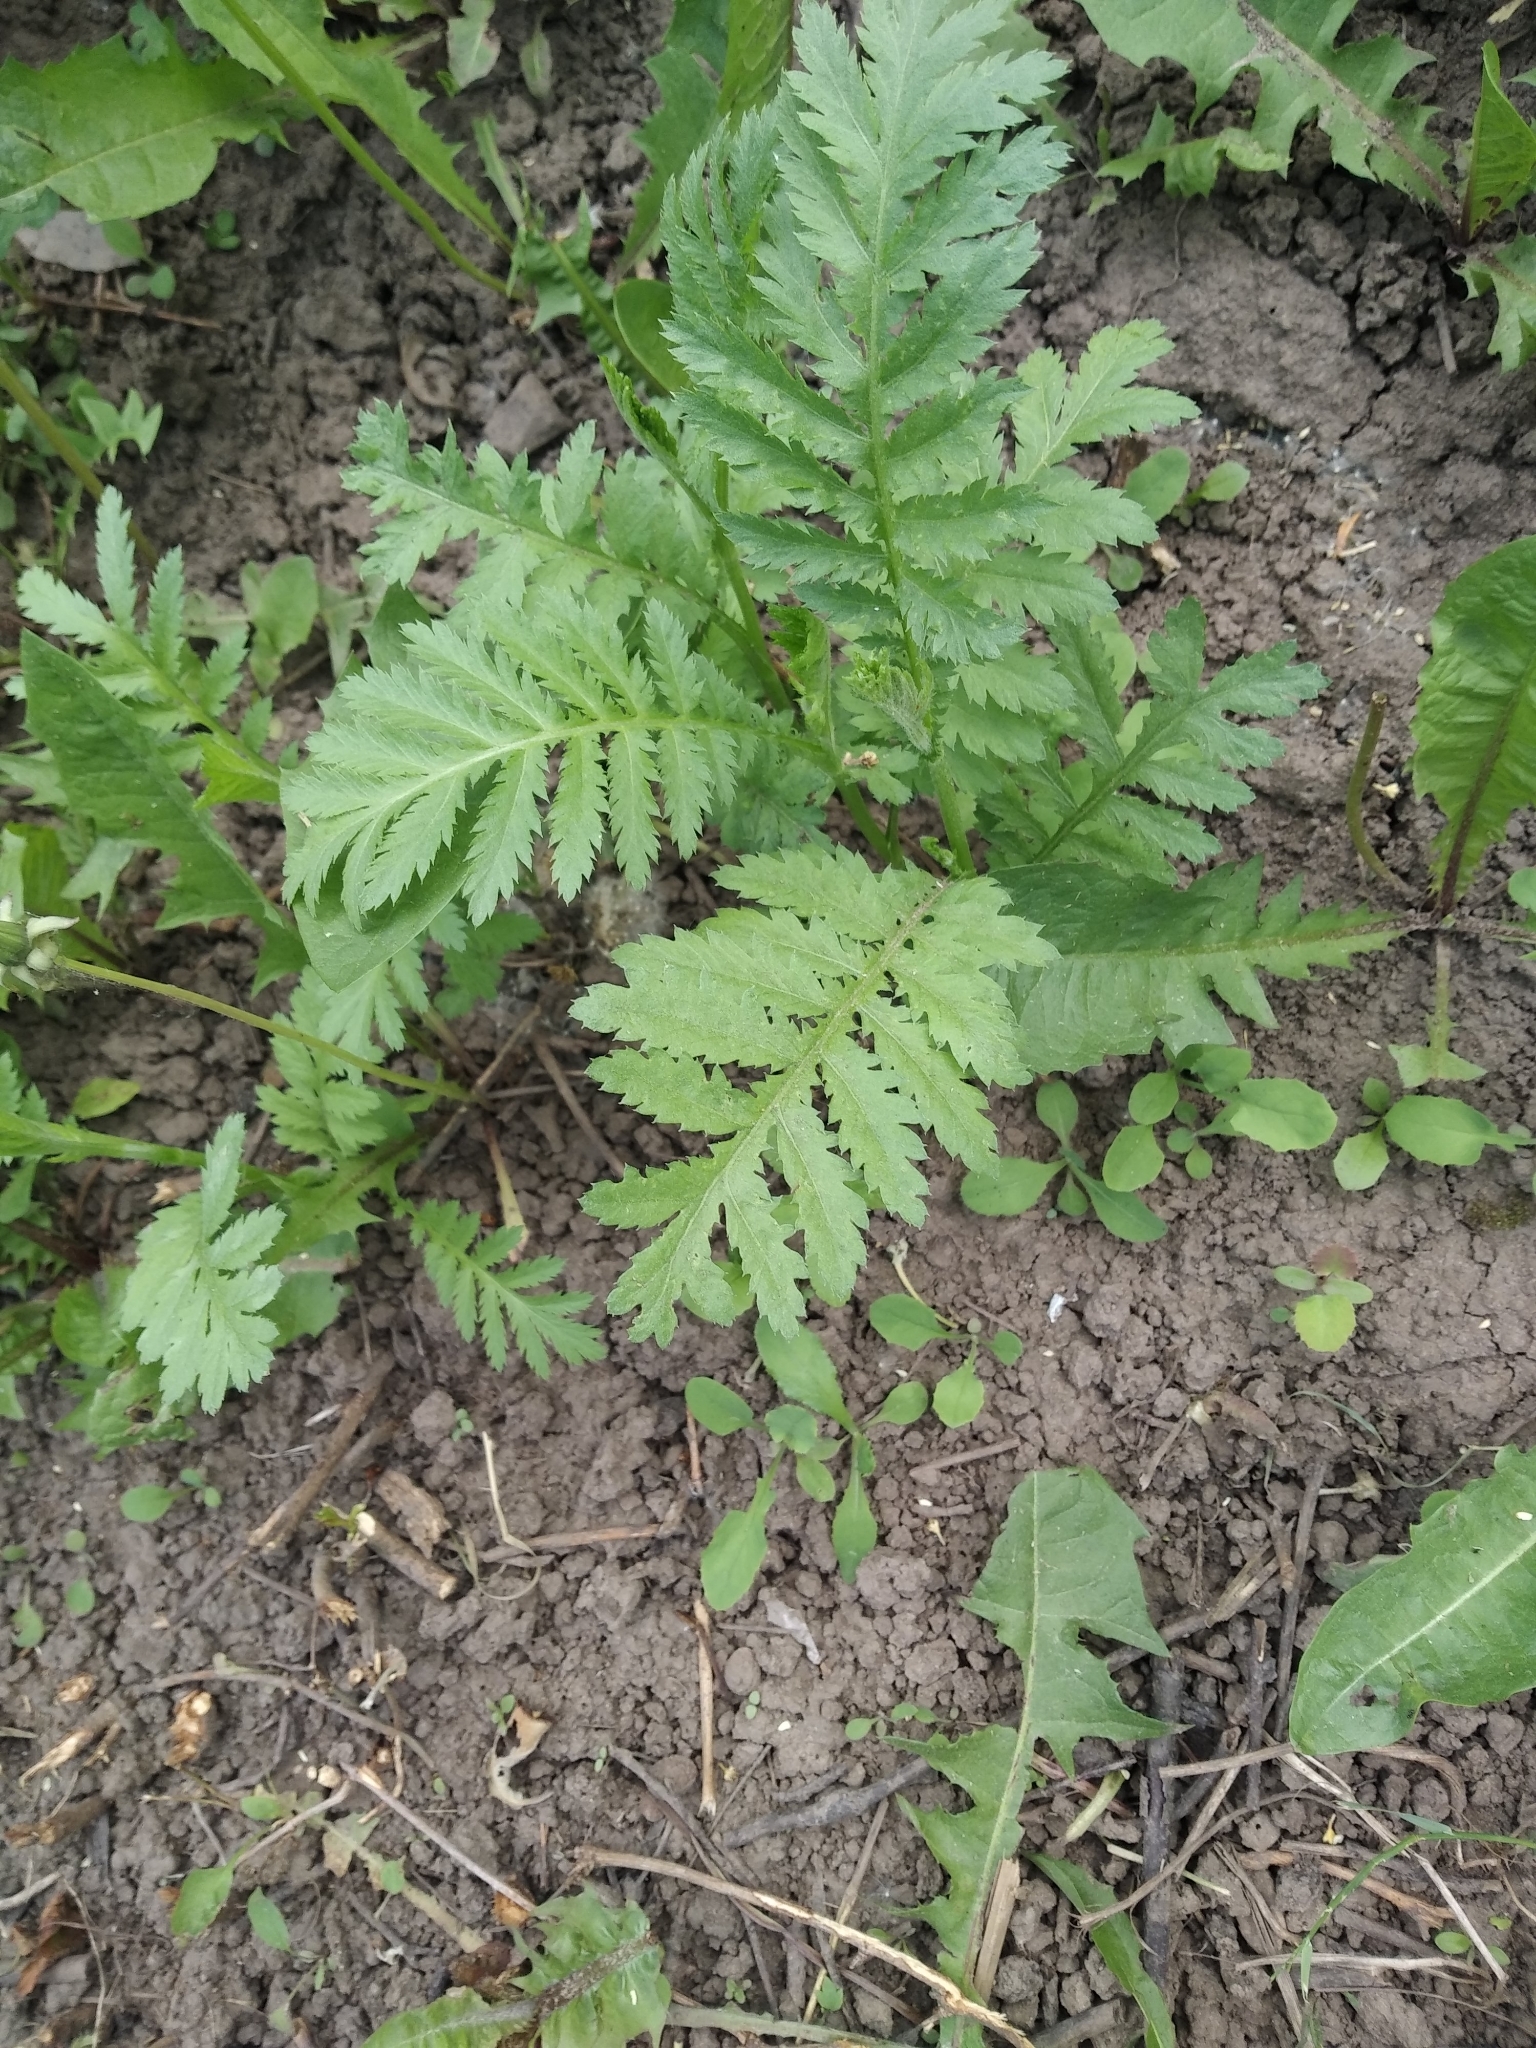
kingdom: Plantae
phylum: Tracheophyta
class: Magnoliopsida
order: Asterales
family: Asteraceae
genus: Tanacetum
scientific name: Tanacetum vulgare
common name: Common tansy
